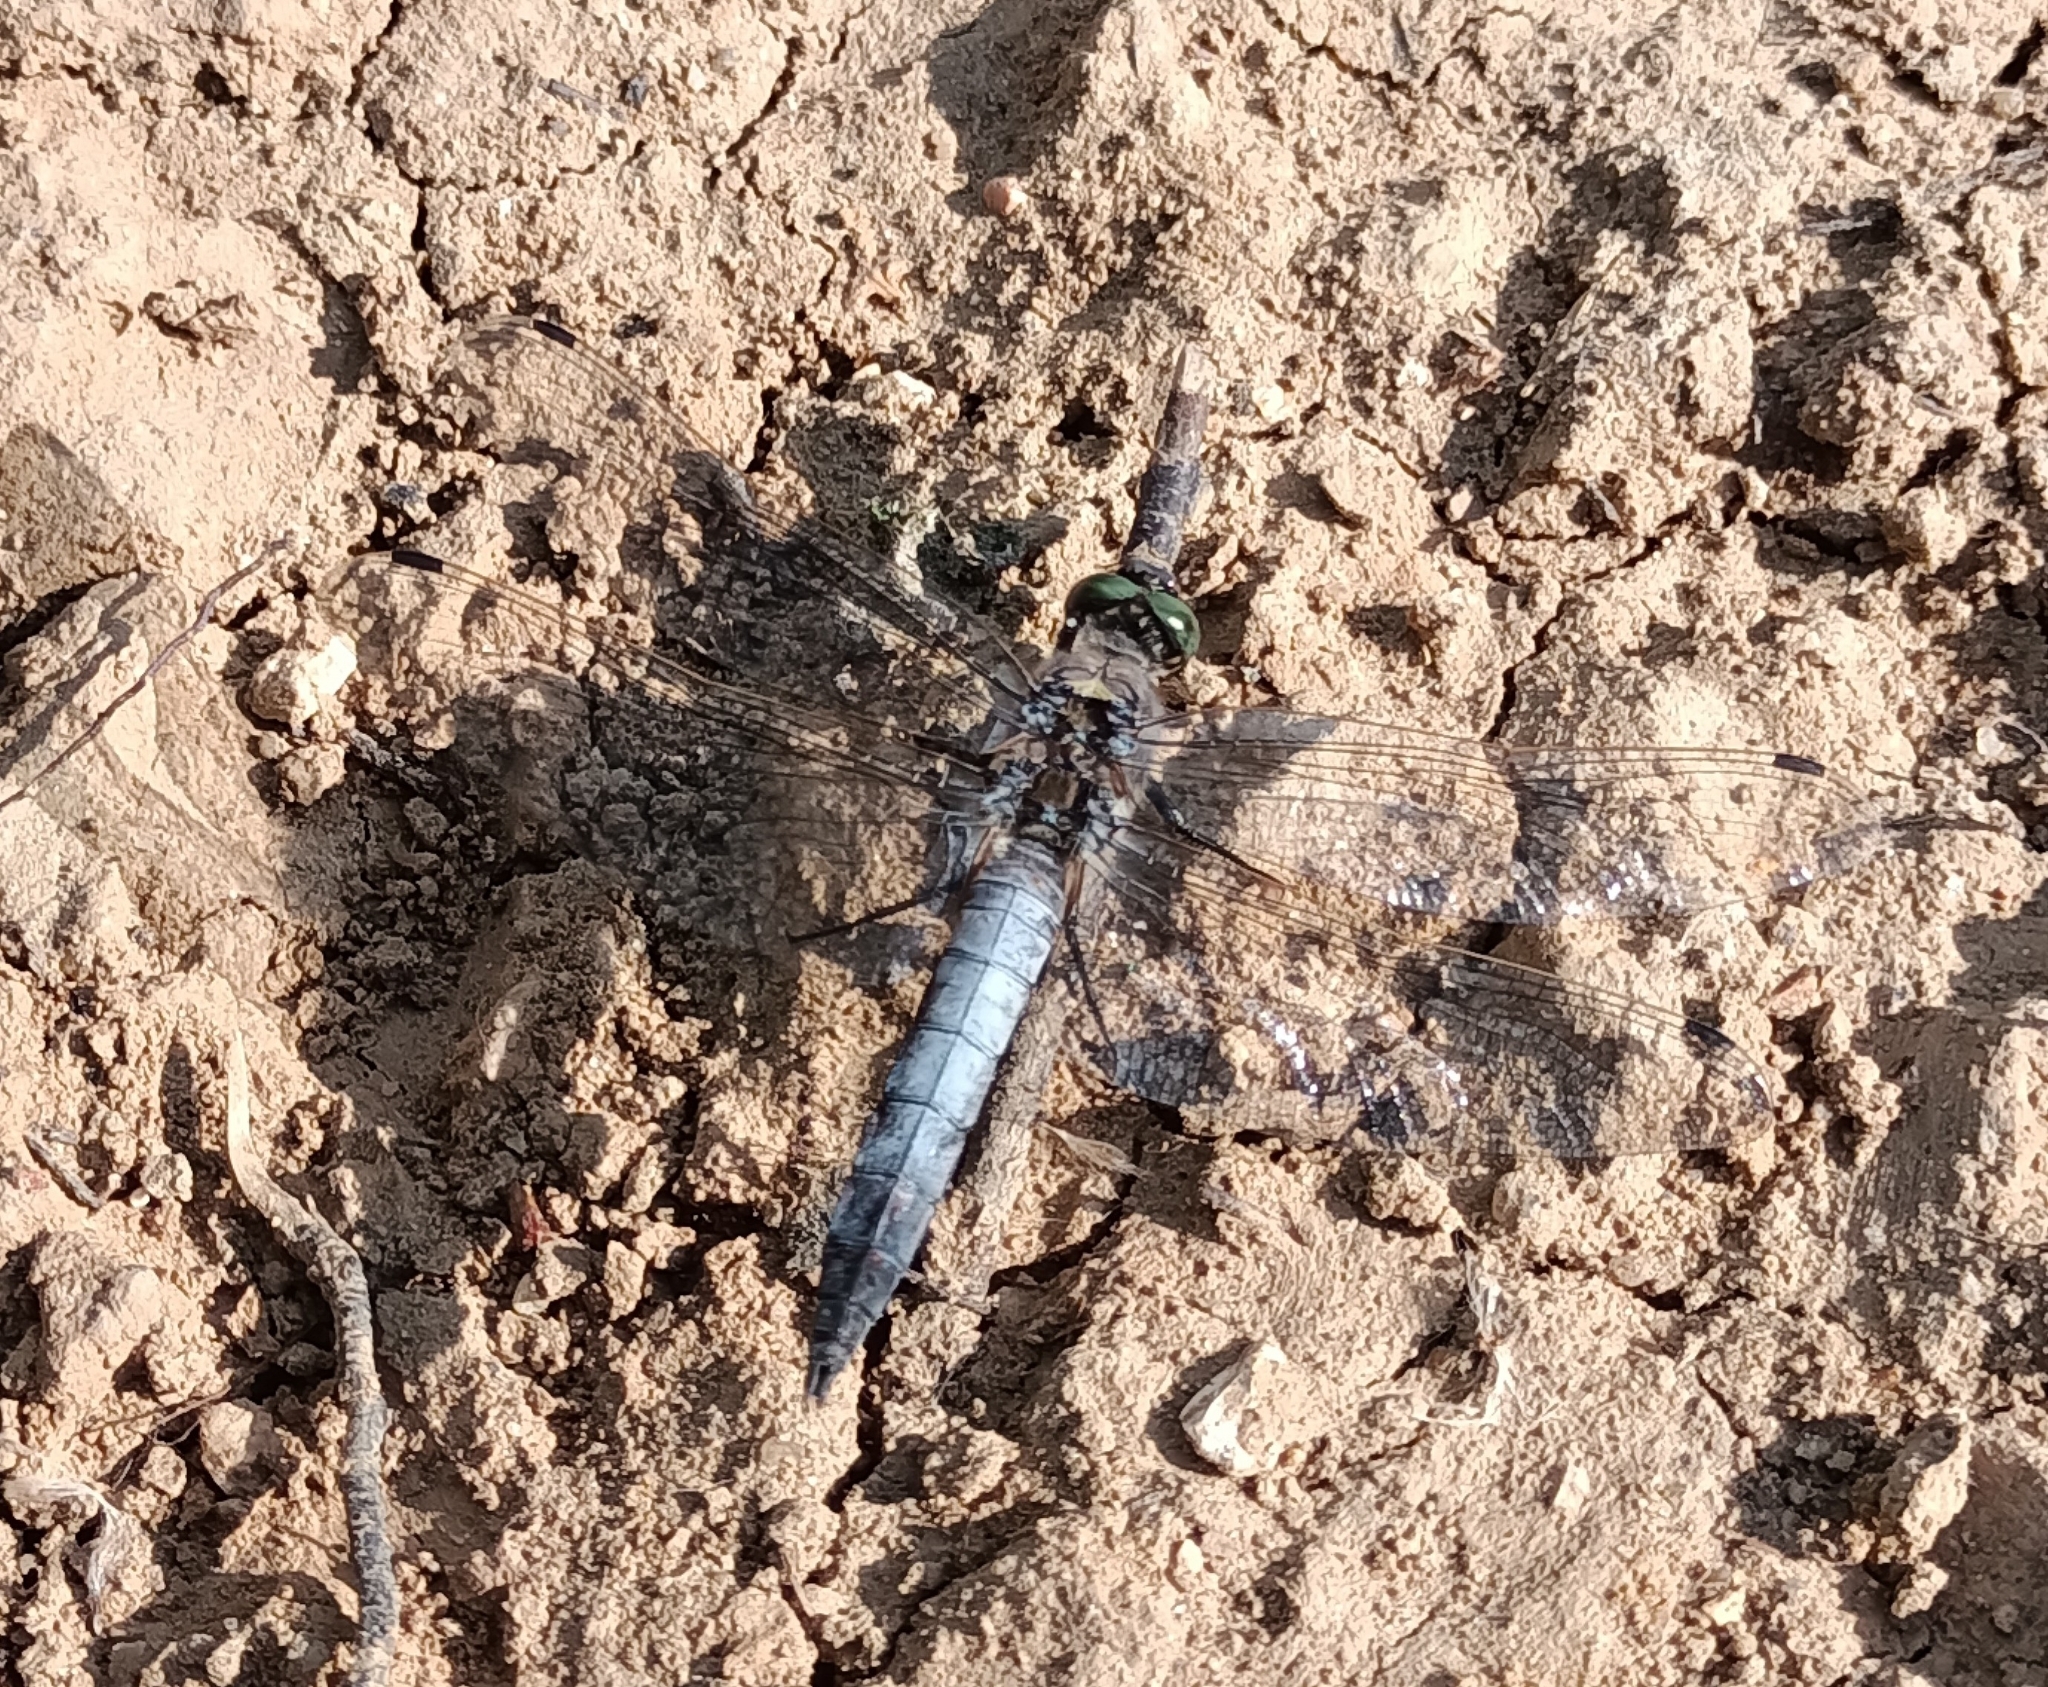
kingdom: Animalia
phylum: Arthropoda
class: Insecta
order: Odonata
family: Libellulidae
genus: Orthetrum
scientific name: Orthetrum cancellatum
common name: Black-tailed skimmer
